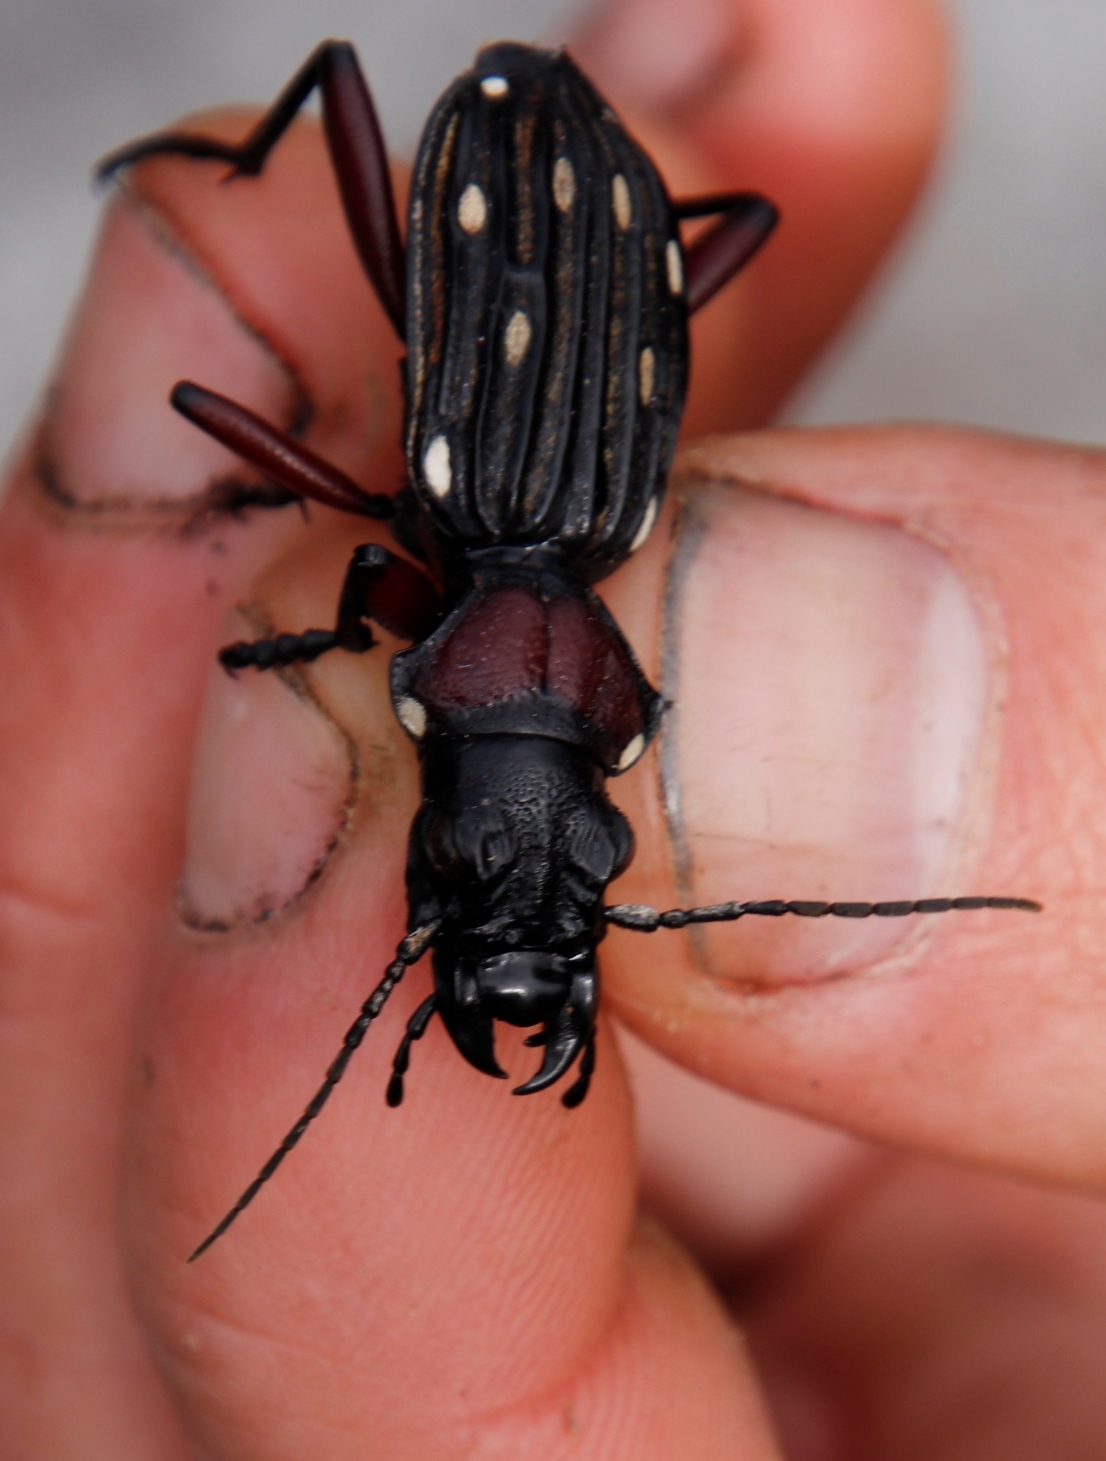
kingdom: Animalia
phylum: Arthropoda
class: Insecta
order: Coleoptera
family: Carabidae
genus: Anthia
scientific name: Anthia decemguttata
